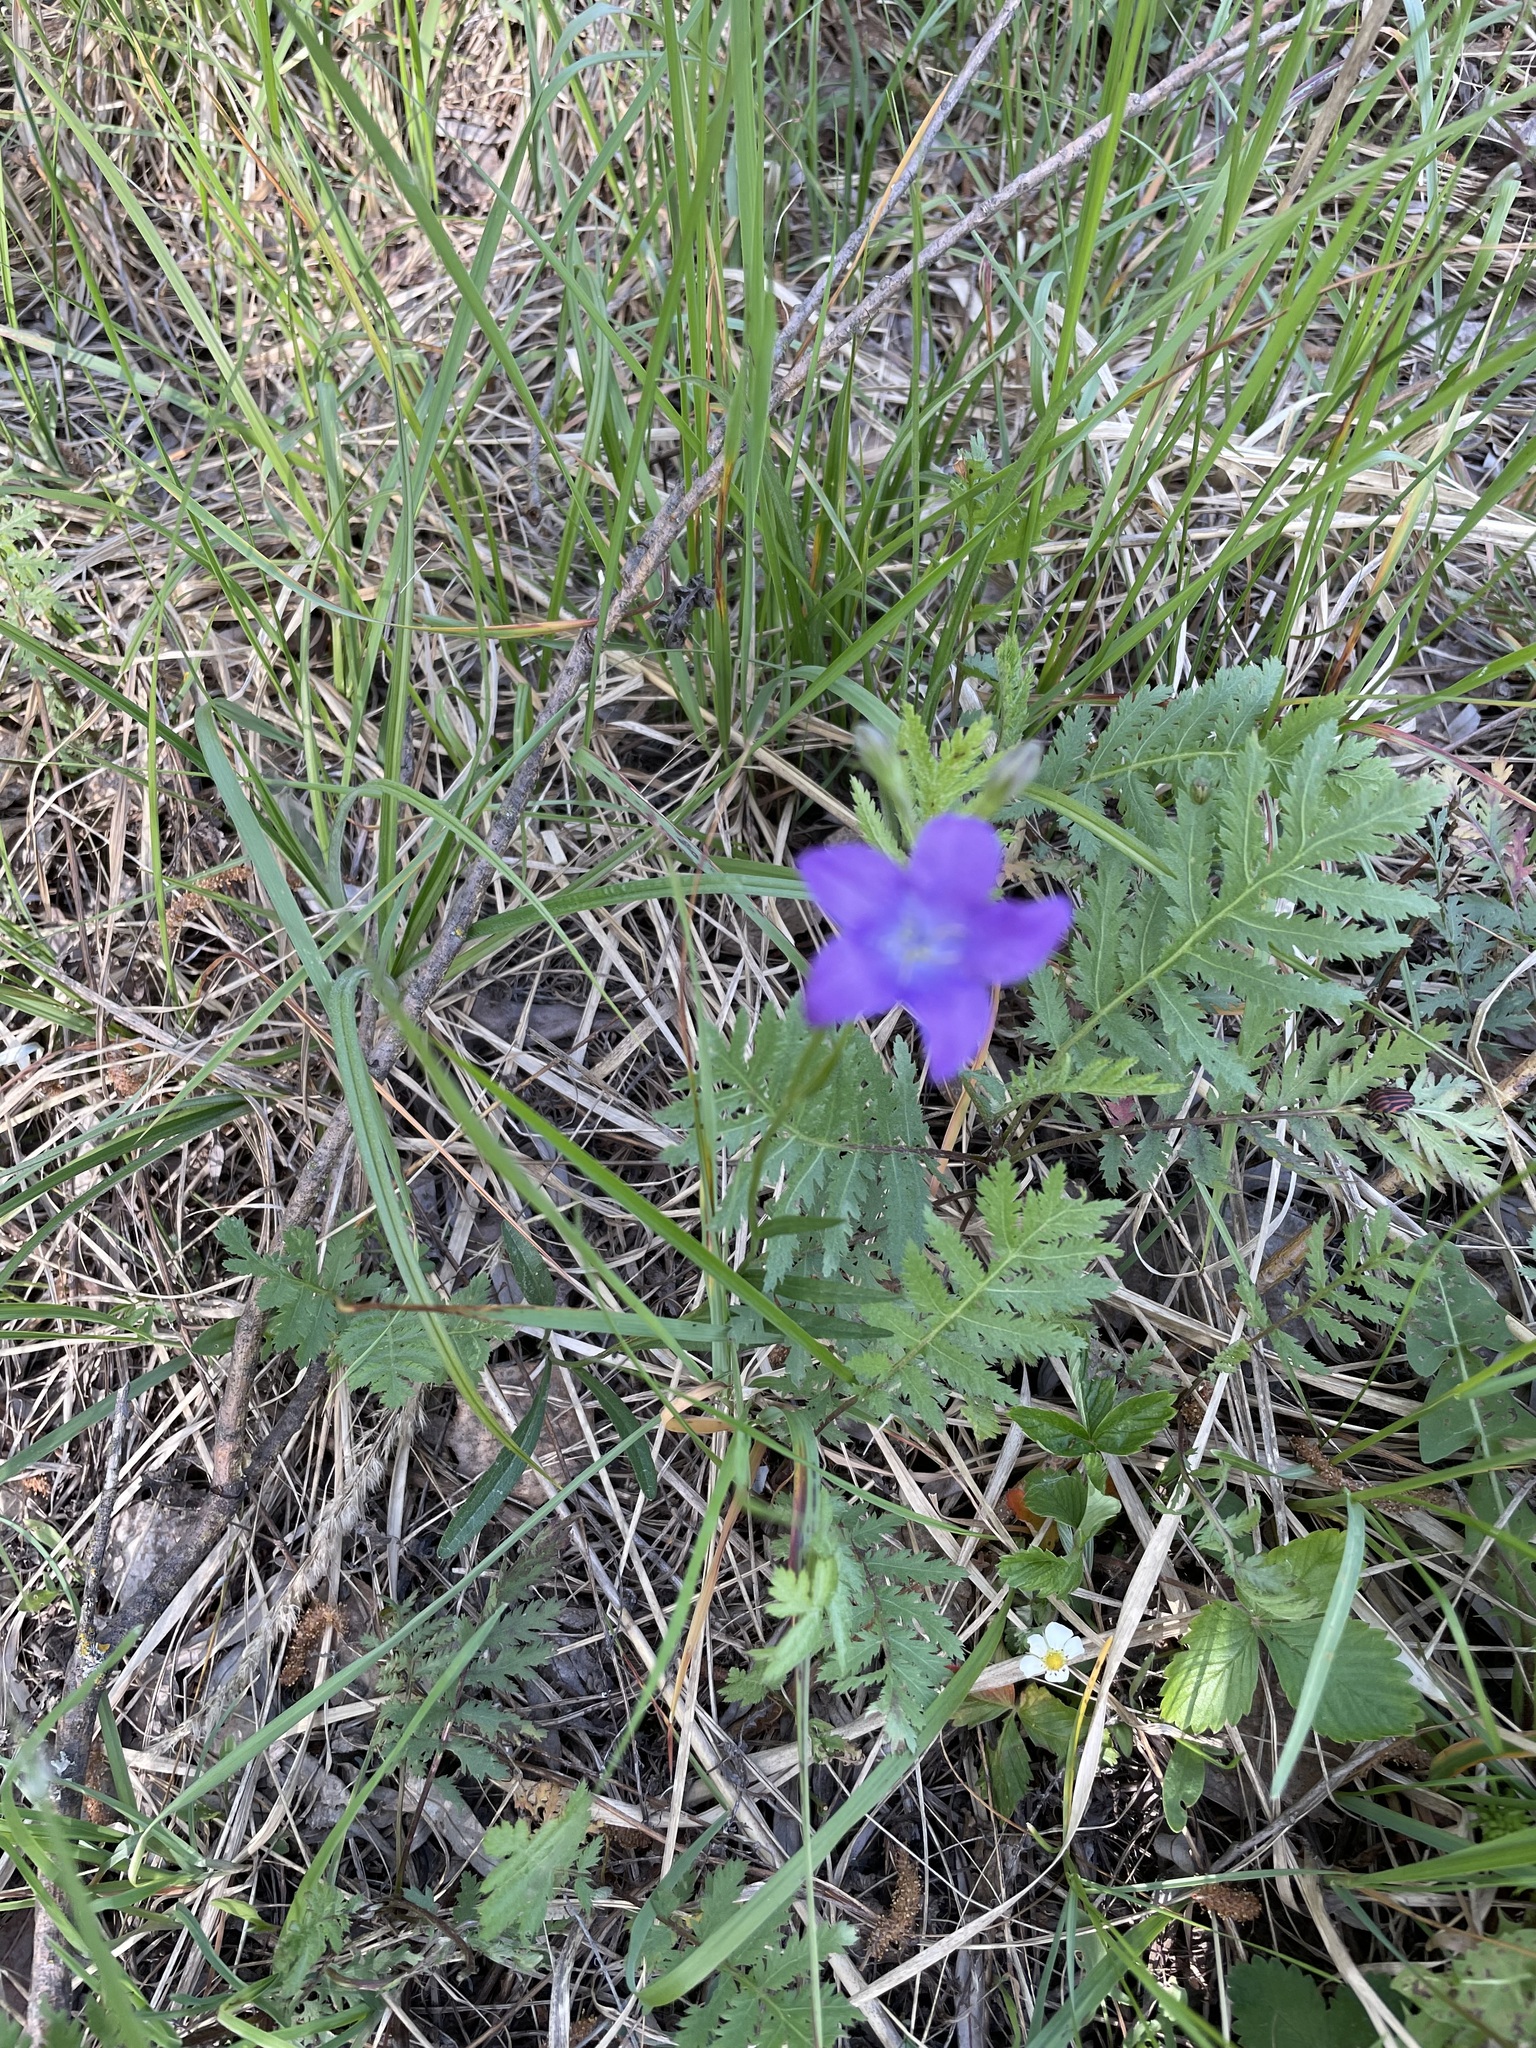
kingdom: Plantae
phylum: Tracheophyta
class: Magnoliopsida
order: Asterales
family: Campanulaceae
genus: Campanula
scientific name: Campanula stevenii
